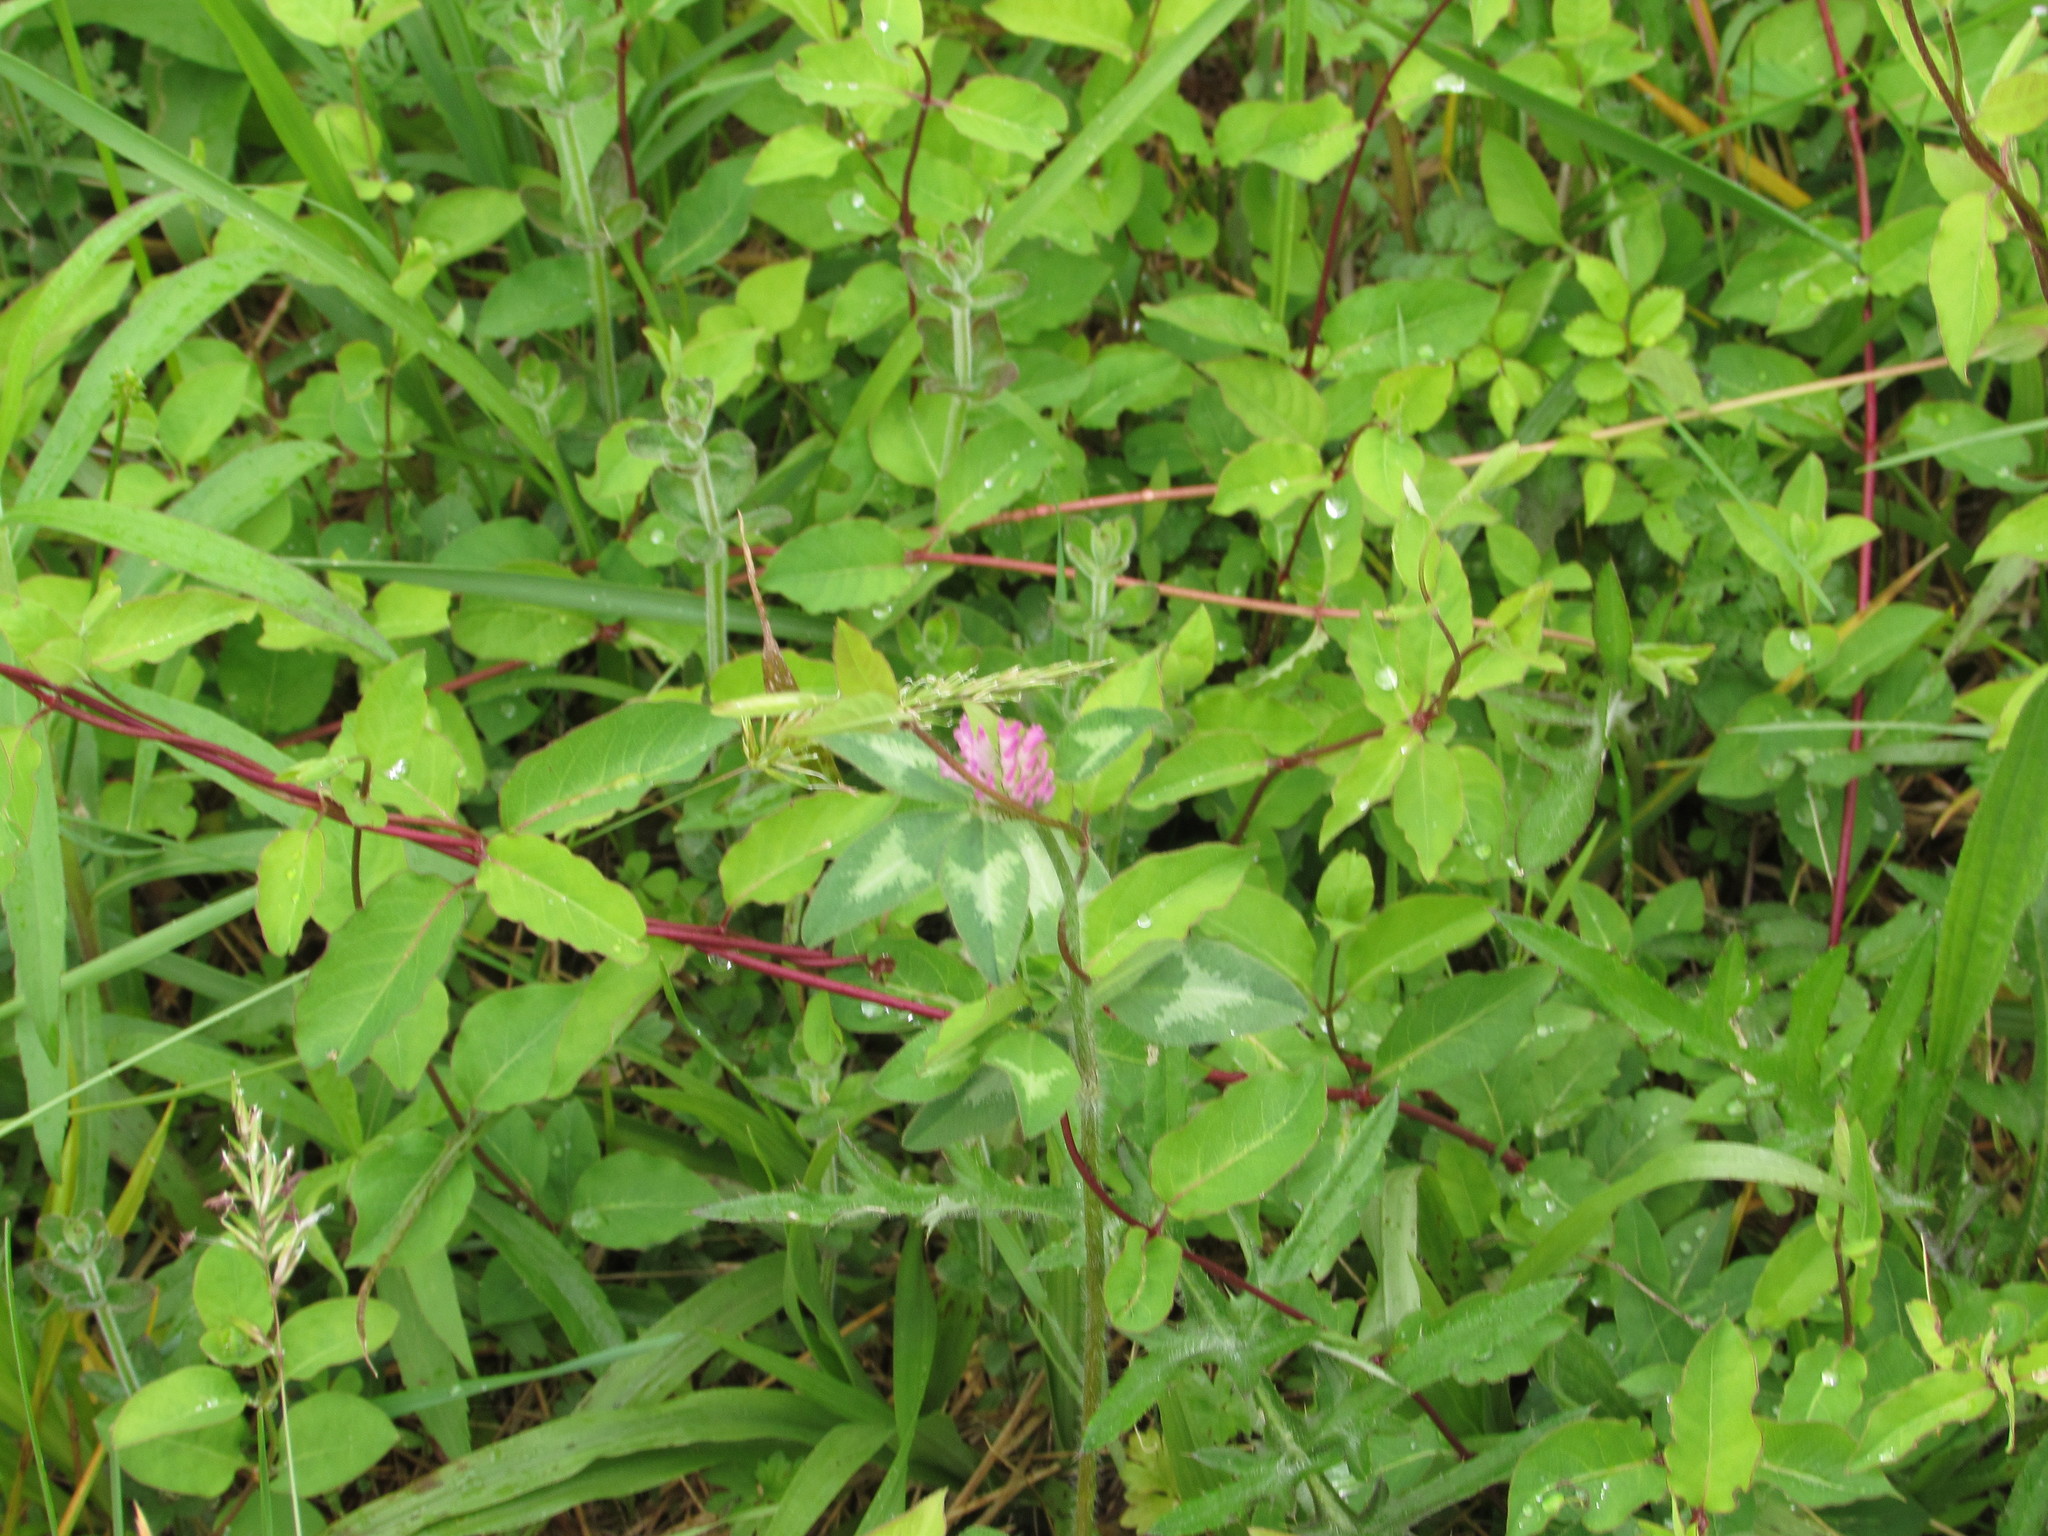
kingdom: Plantae
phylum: Tracheophyta
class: Magnoliopsida
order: Fabales
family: Fabaceae
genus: Trifolium
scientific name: Trifolium pratense
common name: Red clover
